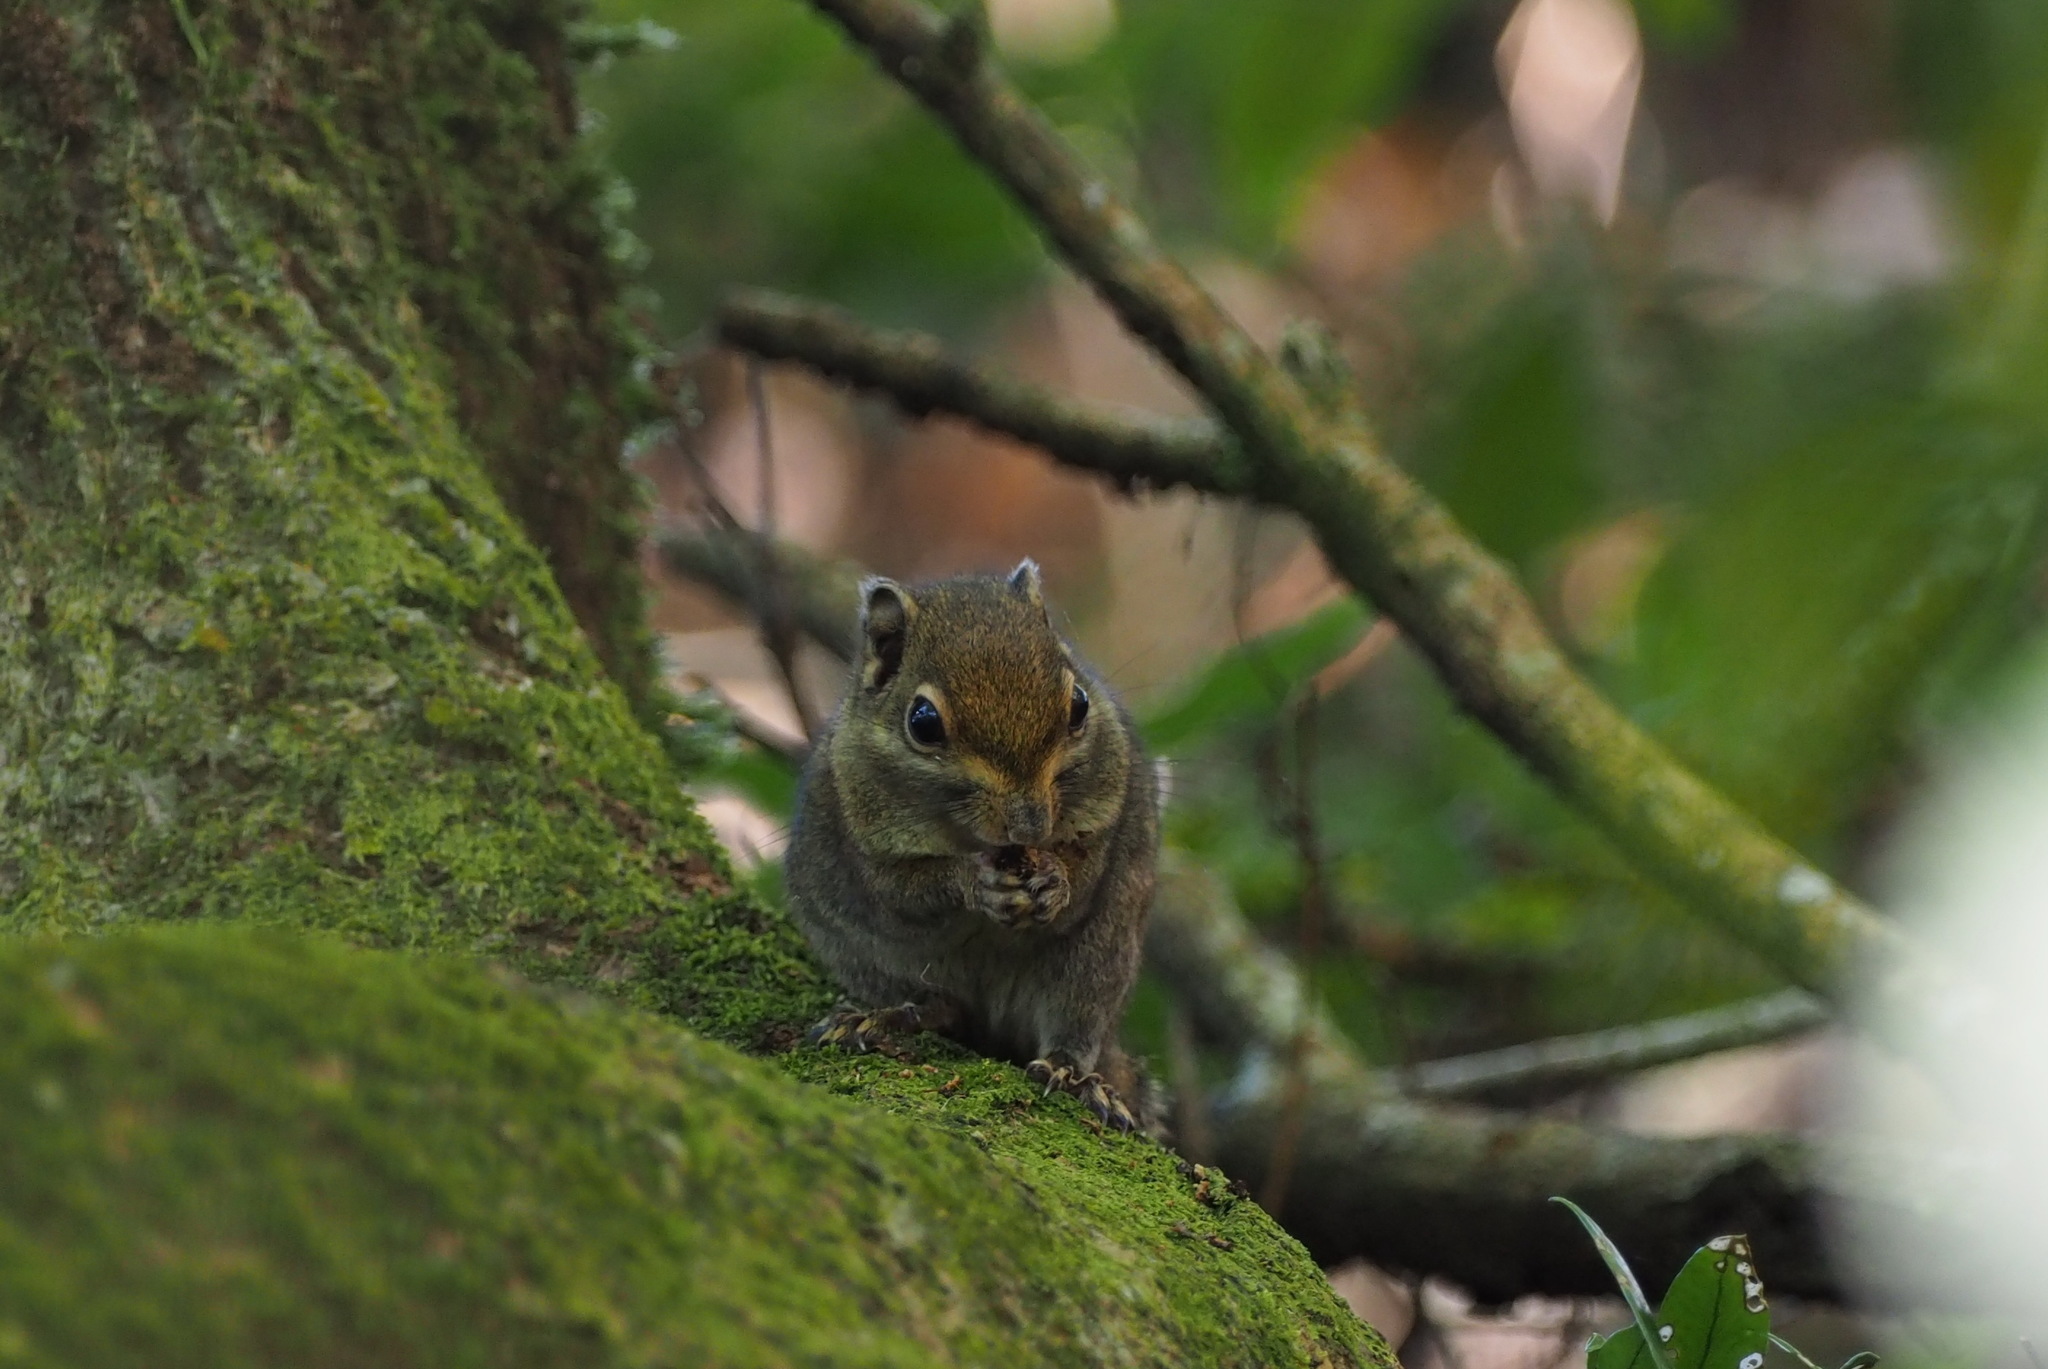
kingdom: Animalia
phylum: Chordata
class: Mammalia
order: Rodentia
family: Sciuridae
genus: Tamiops
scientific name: Tamiops maritimus
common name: Maritime striped squirrel
